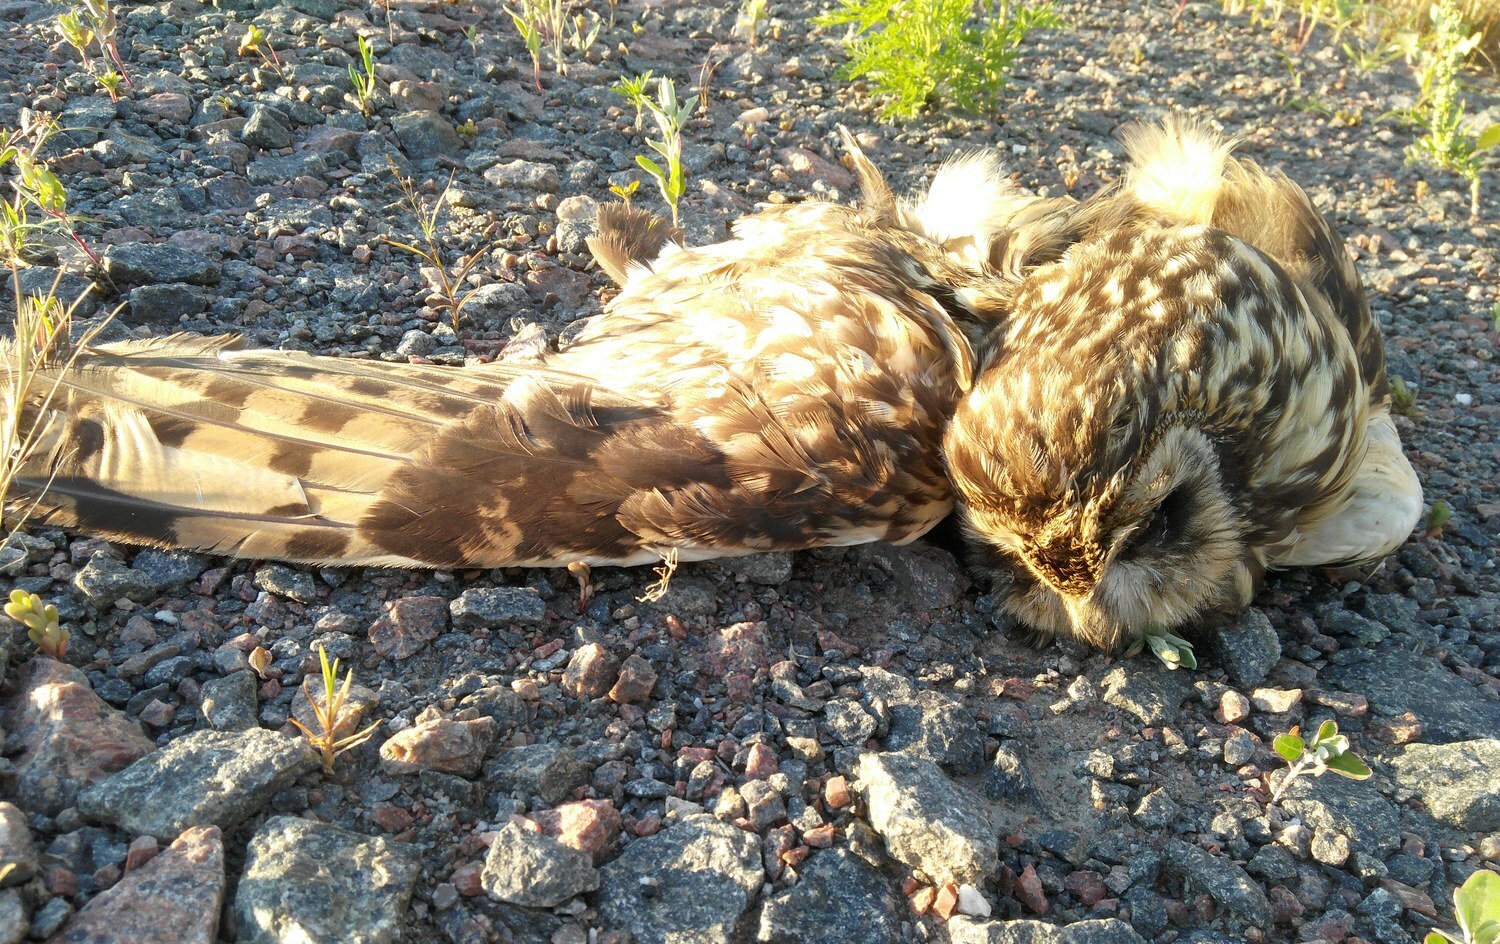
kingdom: Animalia
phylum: Chordata
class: Aves
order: Strigiformes
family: Strigidae
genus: Asio
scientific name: Asio flammeus
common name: Short-eared owl
